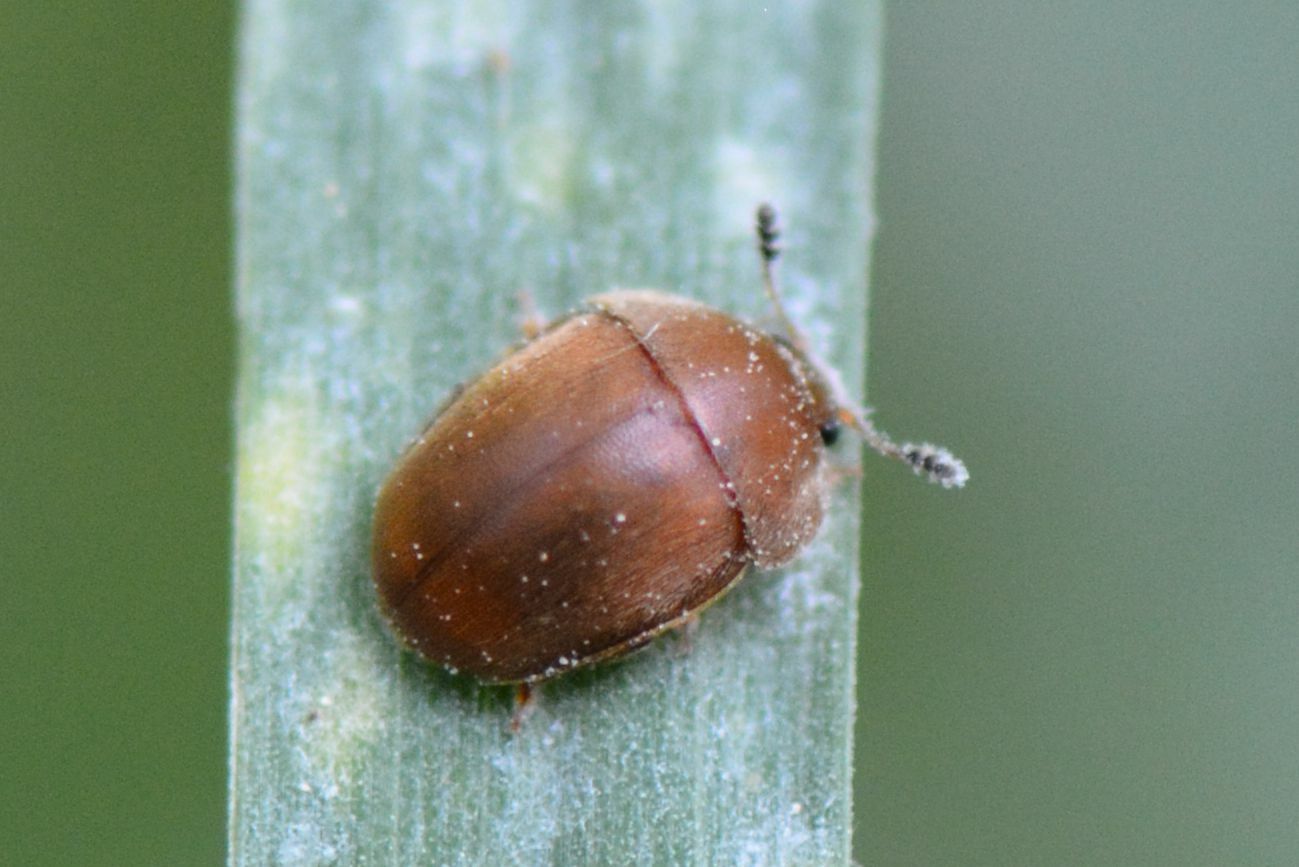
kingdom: Animalia
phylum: Arthropoda
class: Insecta
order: Coleoptera
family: Nitidulidae
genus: Cychramus
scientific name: Cychramus luteus
